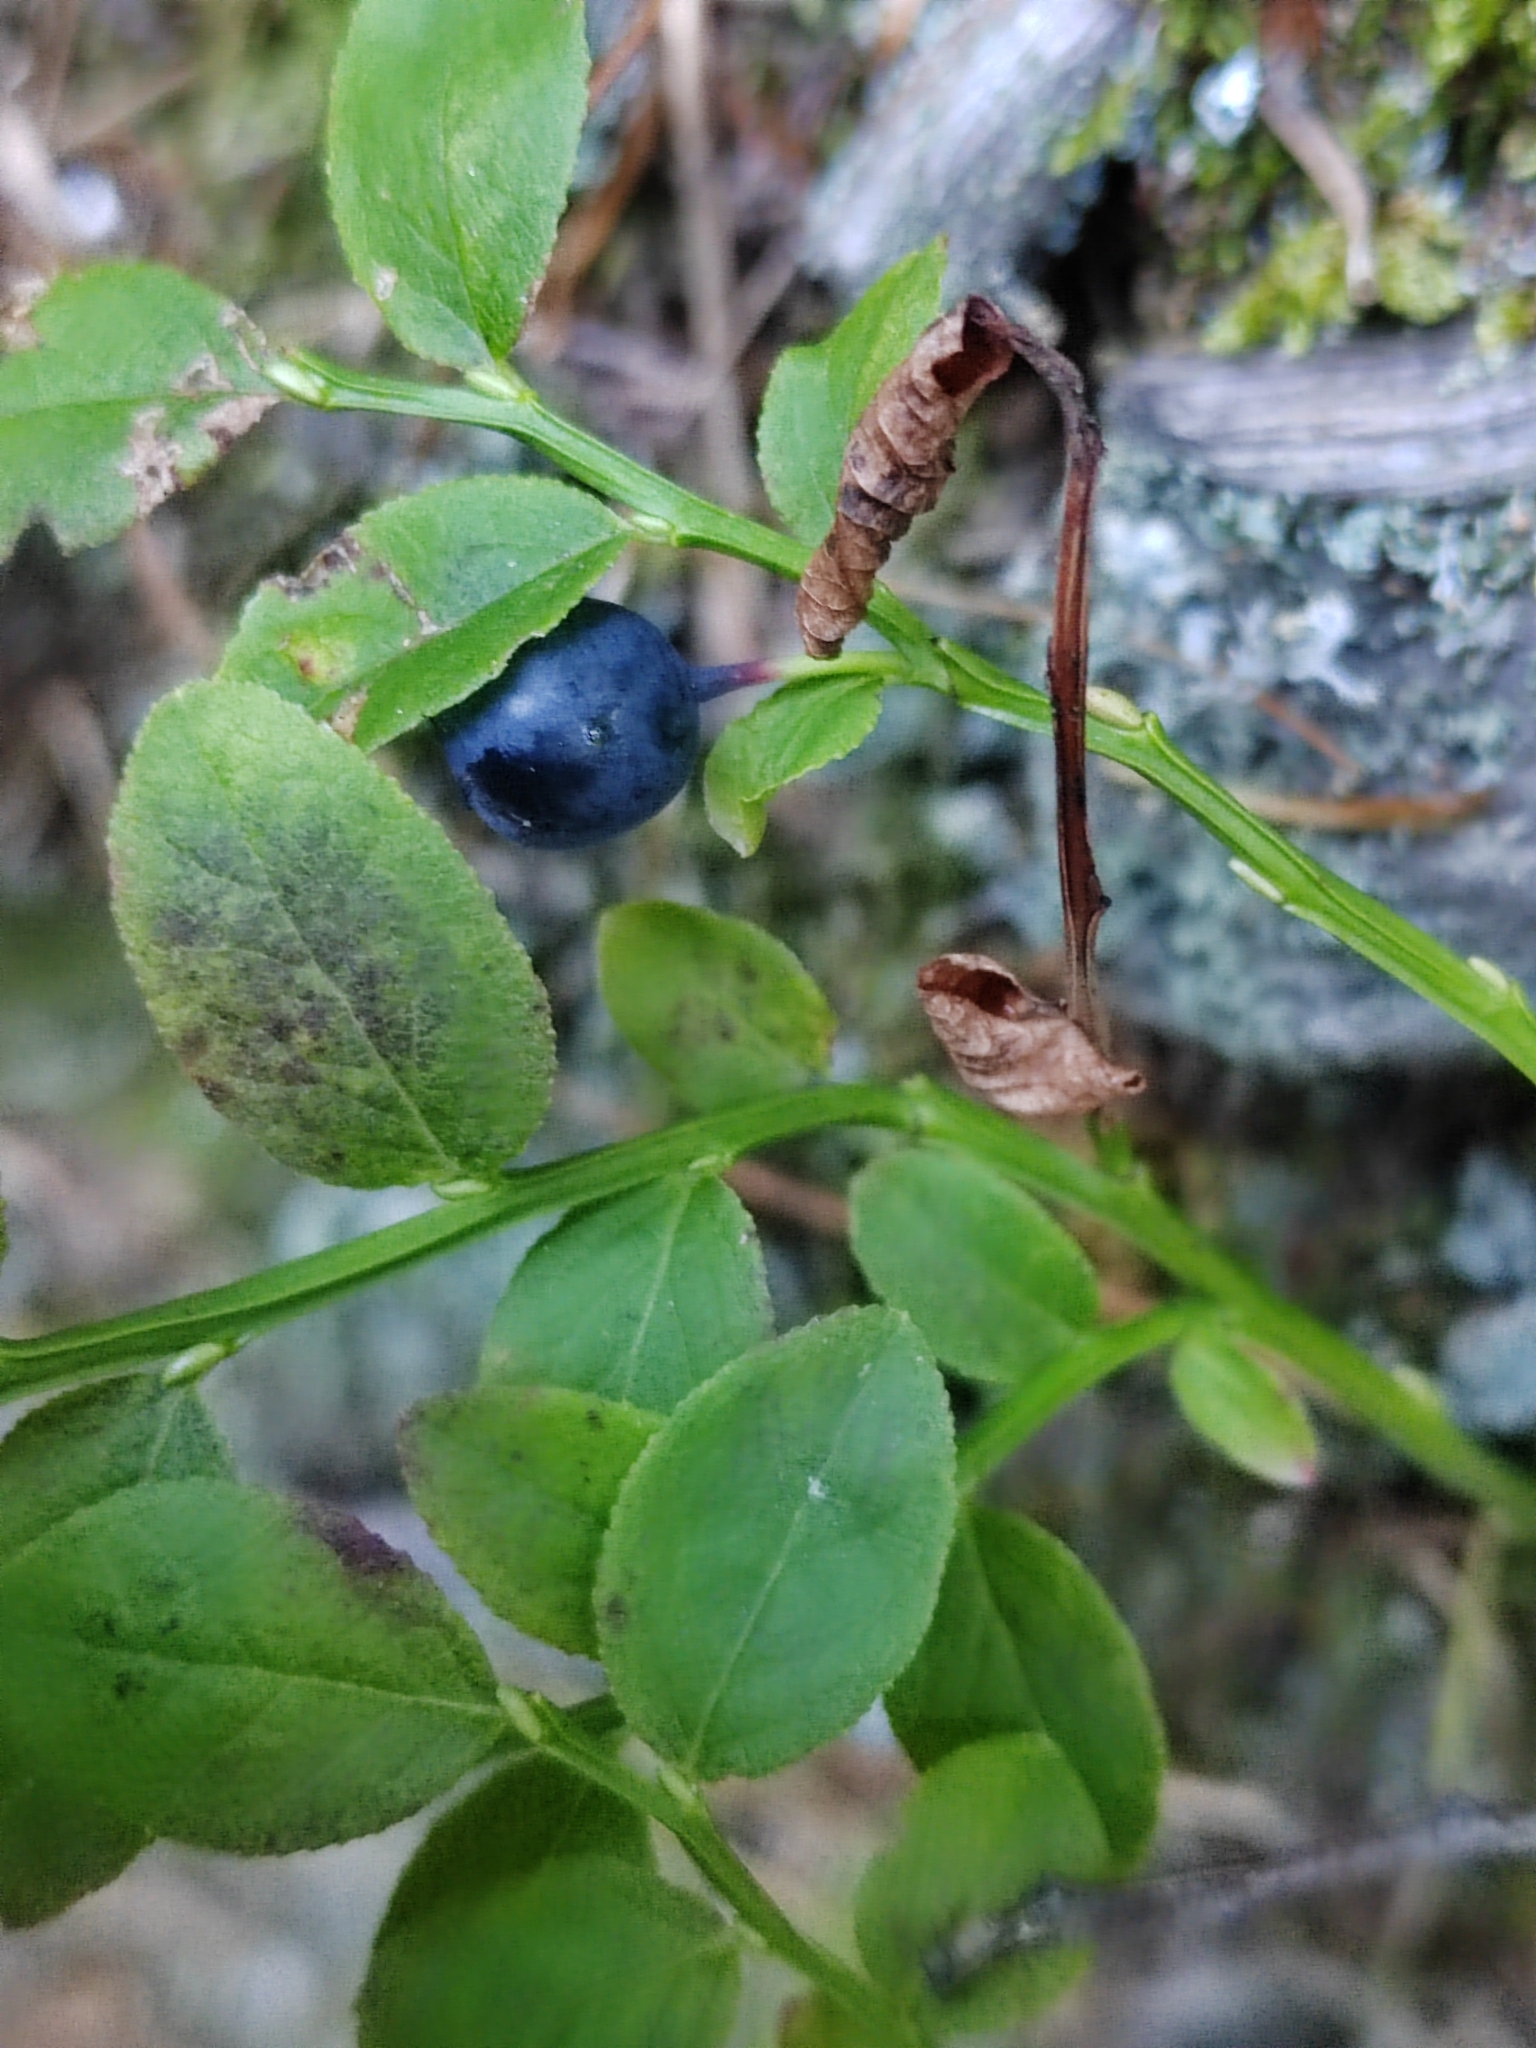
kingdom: Plantae
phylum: Tracheophyta
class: Magnoliopsida
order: Ericales
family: Ericaceae
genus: Vaccinium
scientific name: Vaccinium myrtillus
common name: Bilberry
